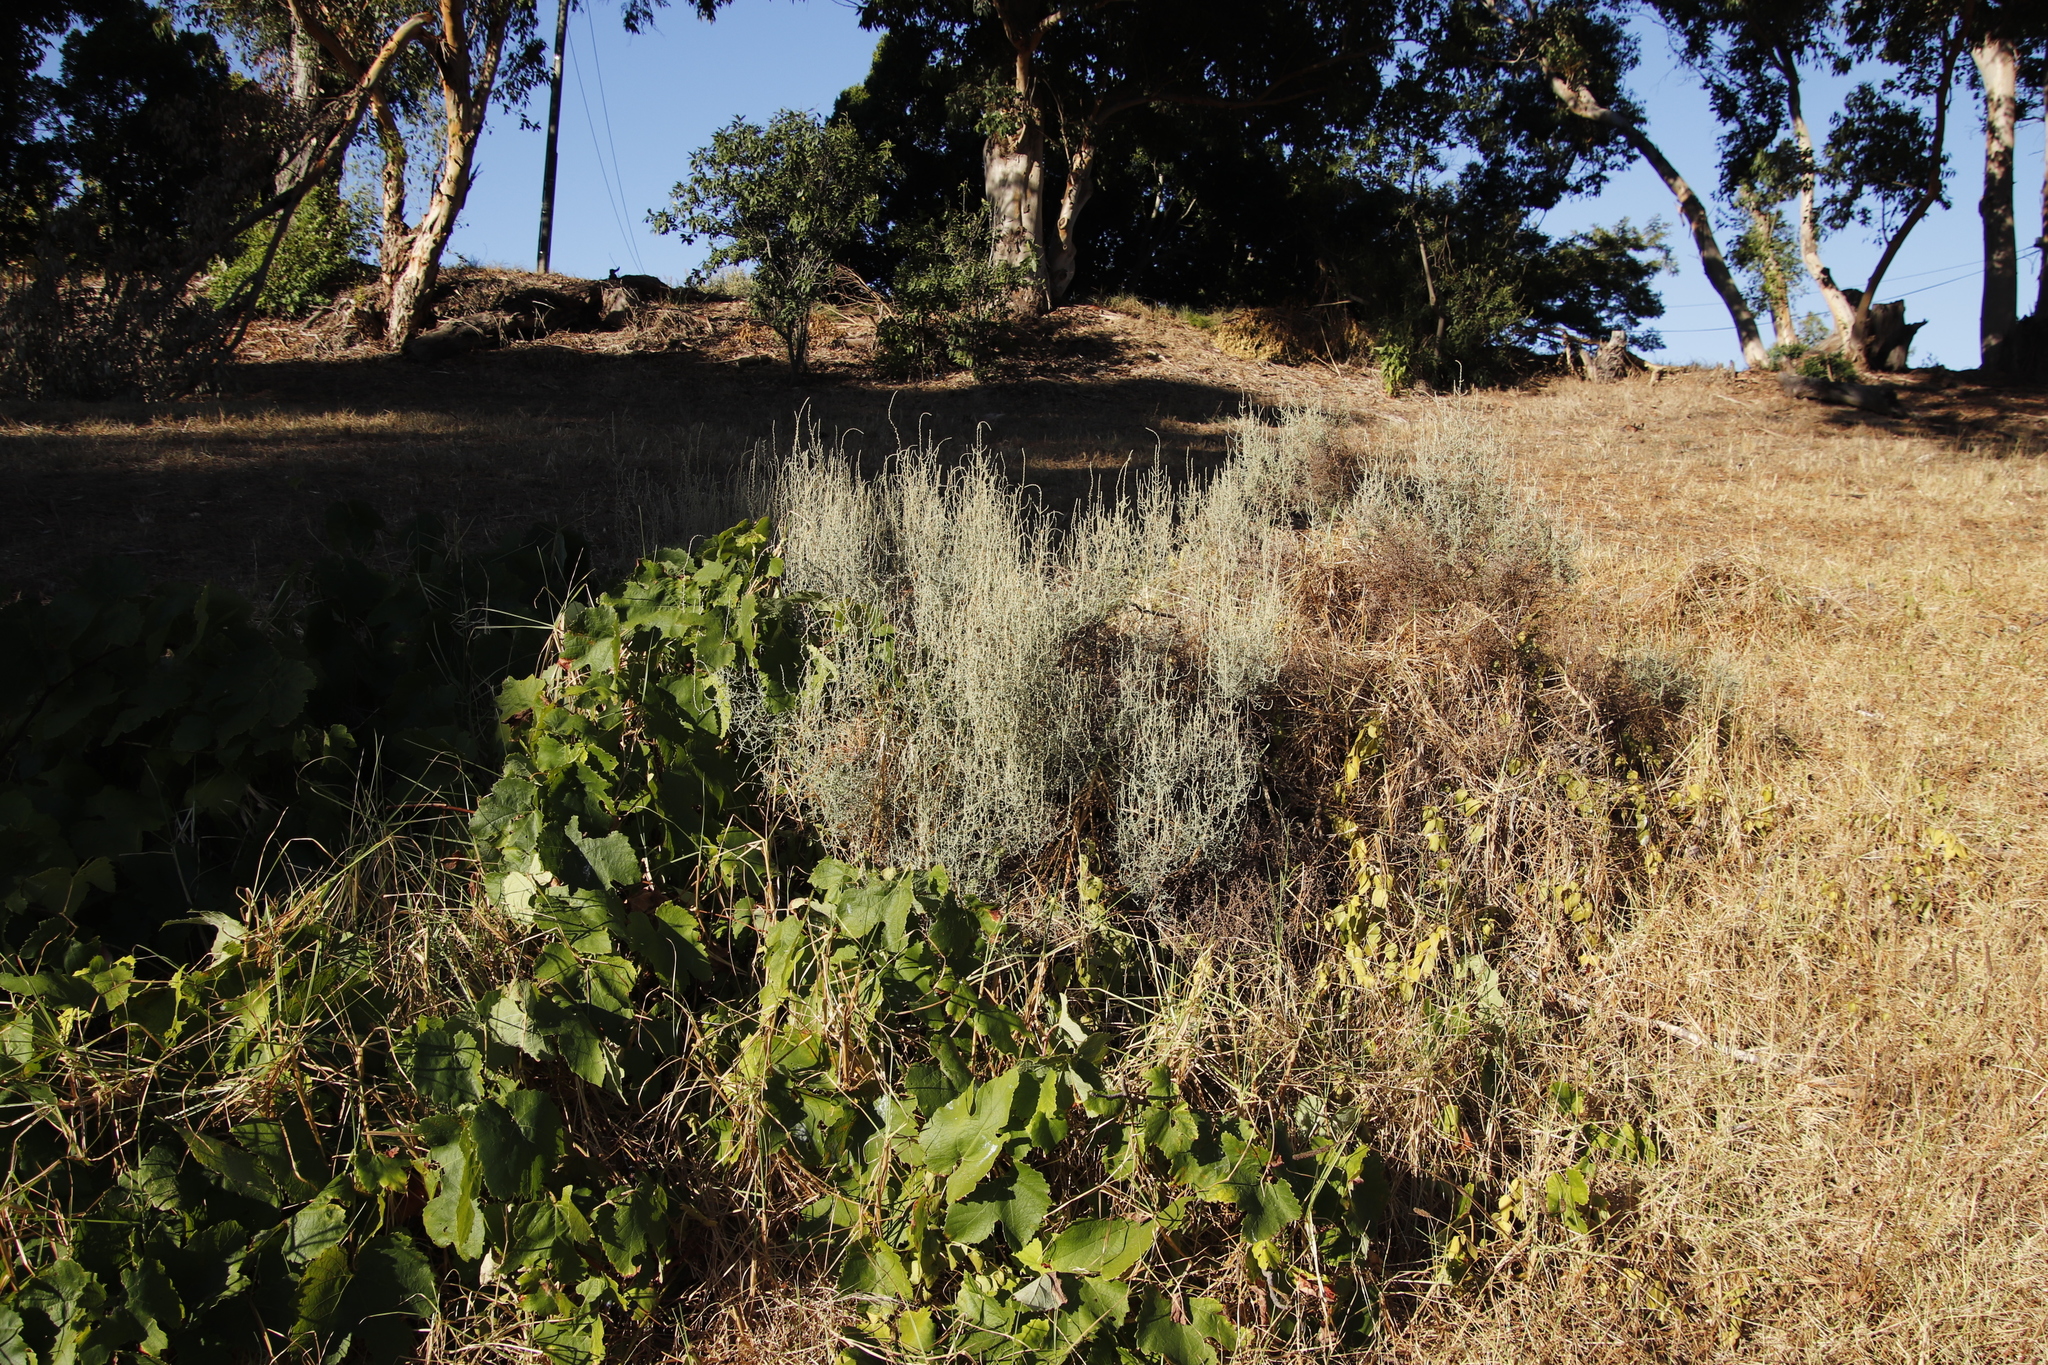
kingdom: Plantae
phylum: Tracheophyta
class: Magnoliopsida
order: Asterales
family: Asteraceae
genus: Seriphium
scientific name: Seriphium plumosum
